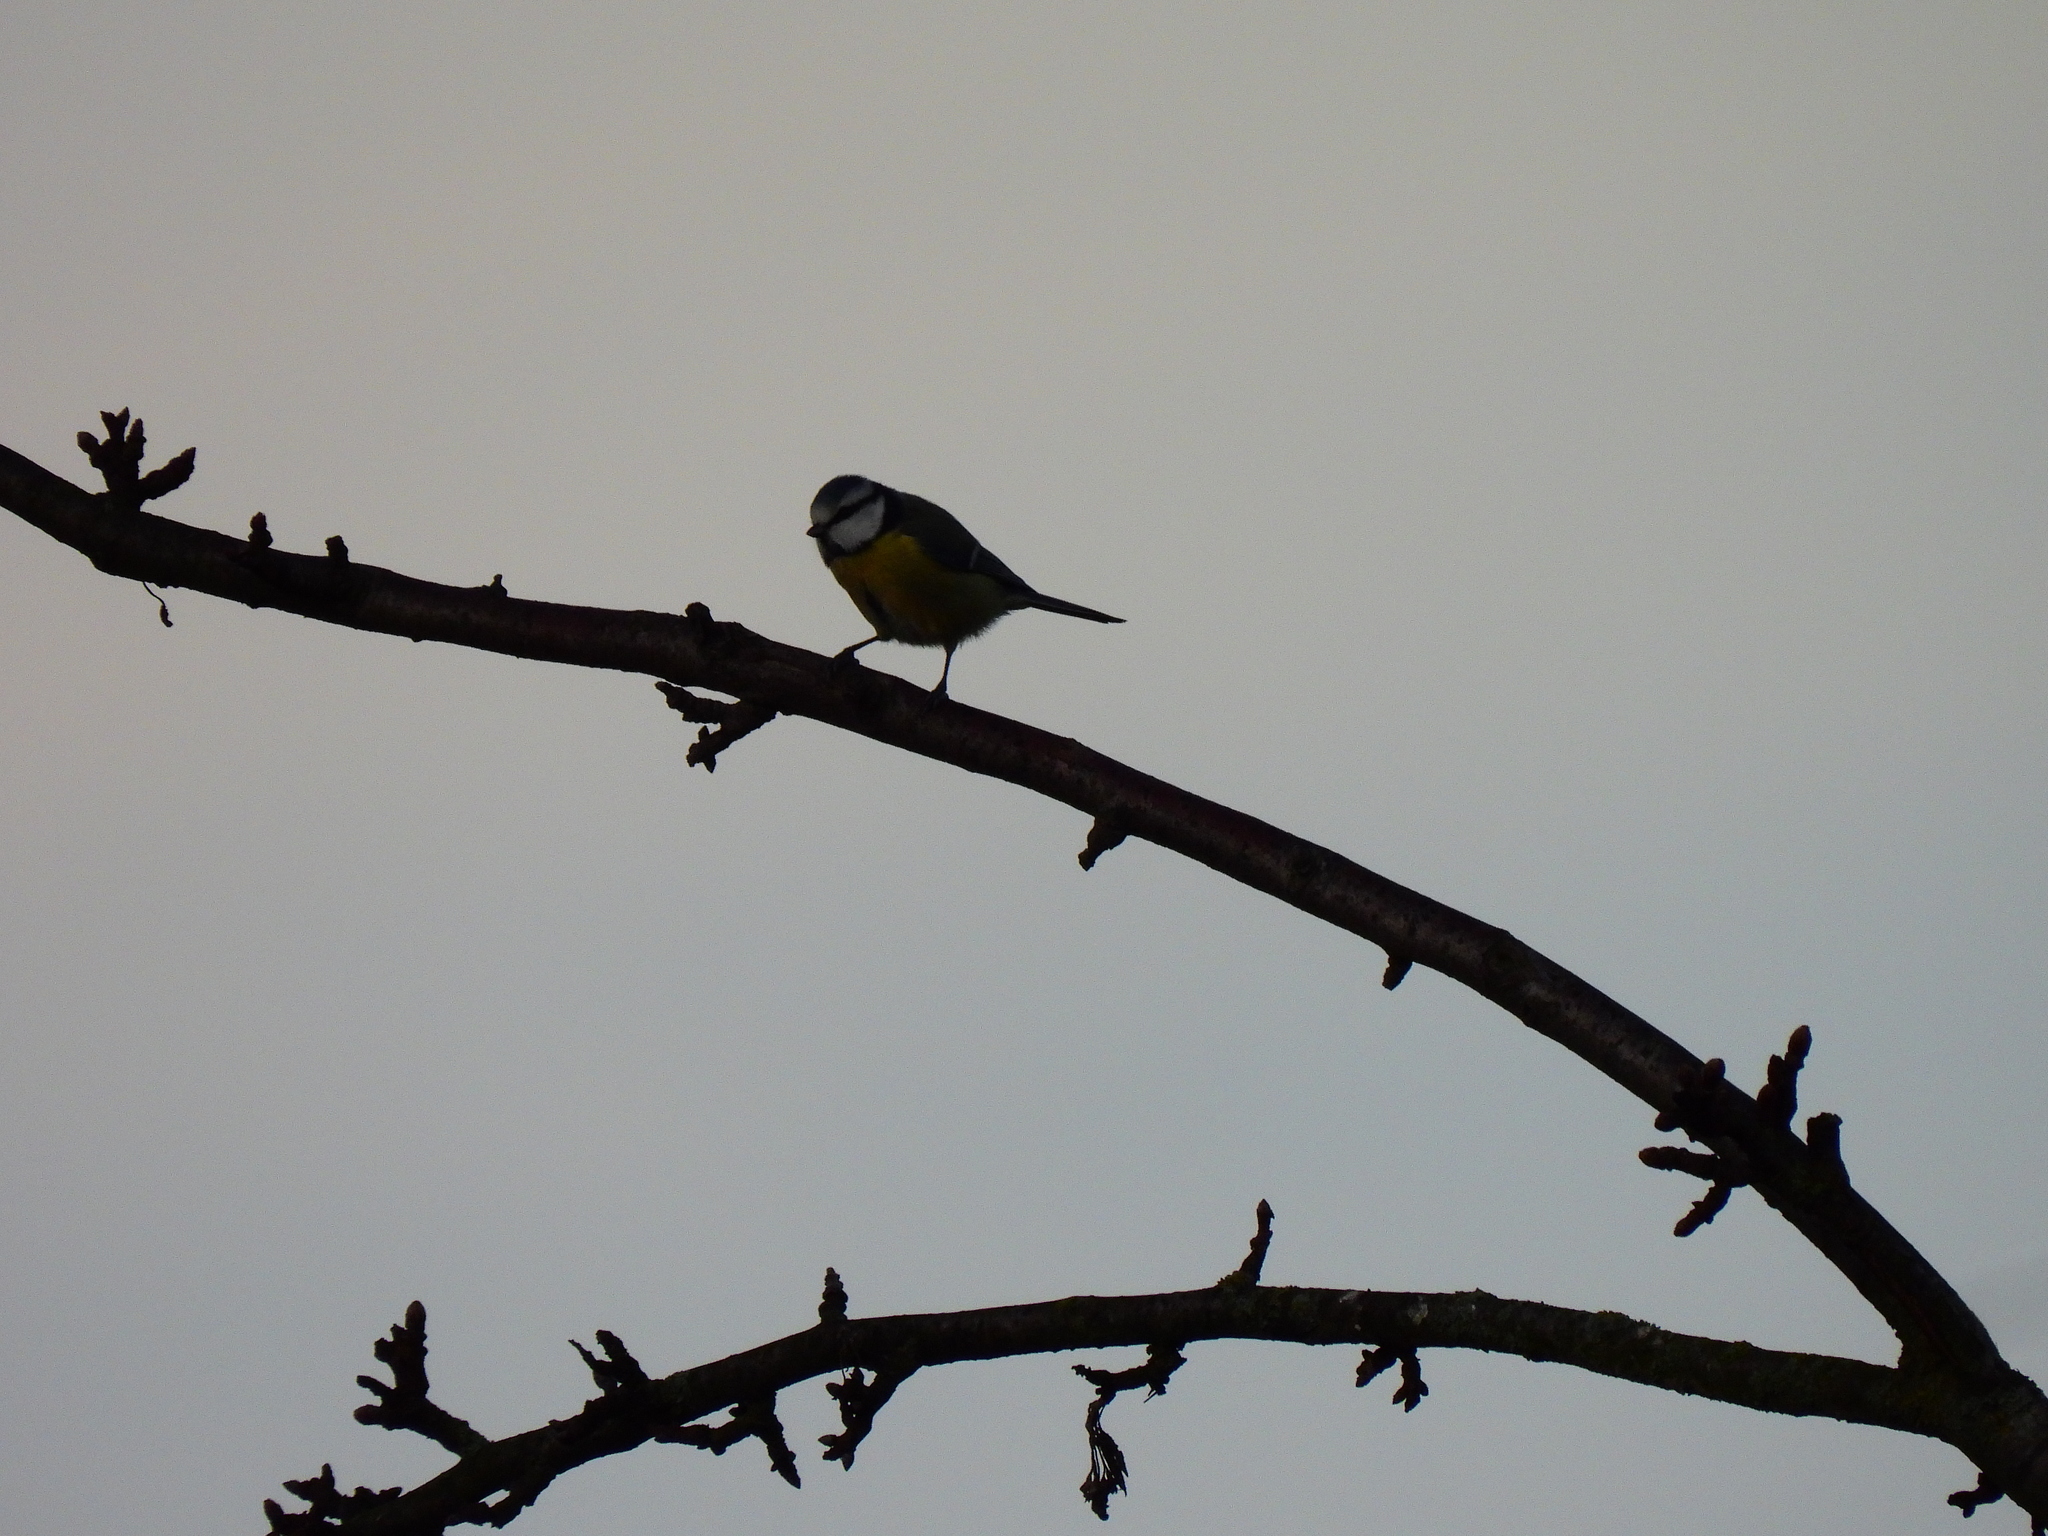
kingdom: Animalia
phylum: Chordata
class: Aves
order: Passeriformes
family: Paridae
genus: Cyanistes
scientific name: Cyanistes caeruleus
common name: Eurasian blue tit
